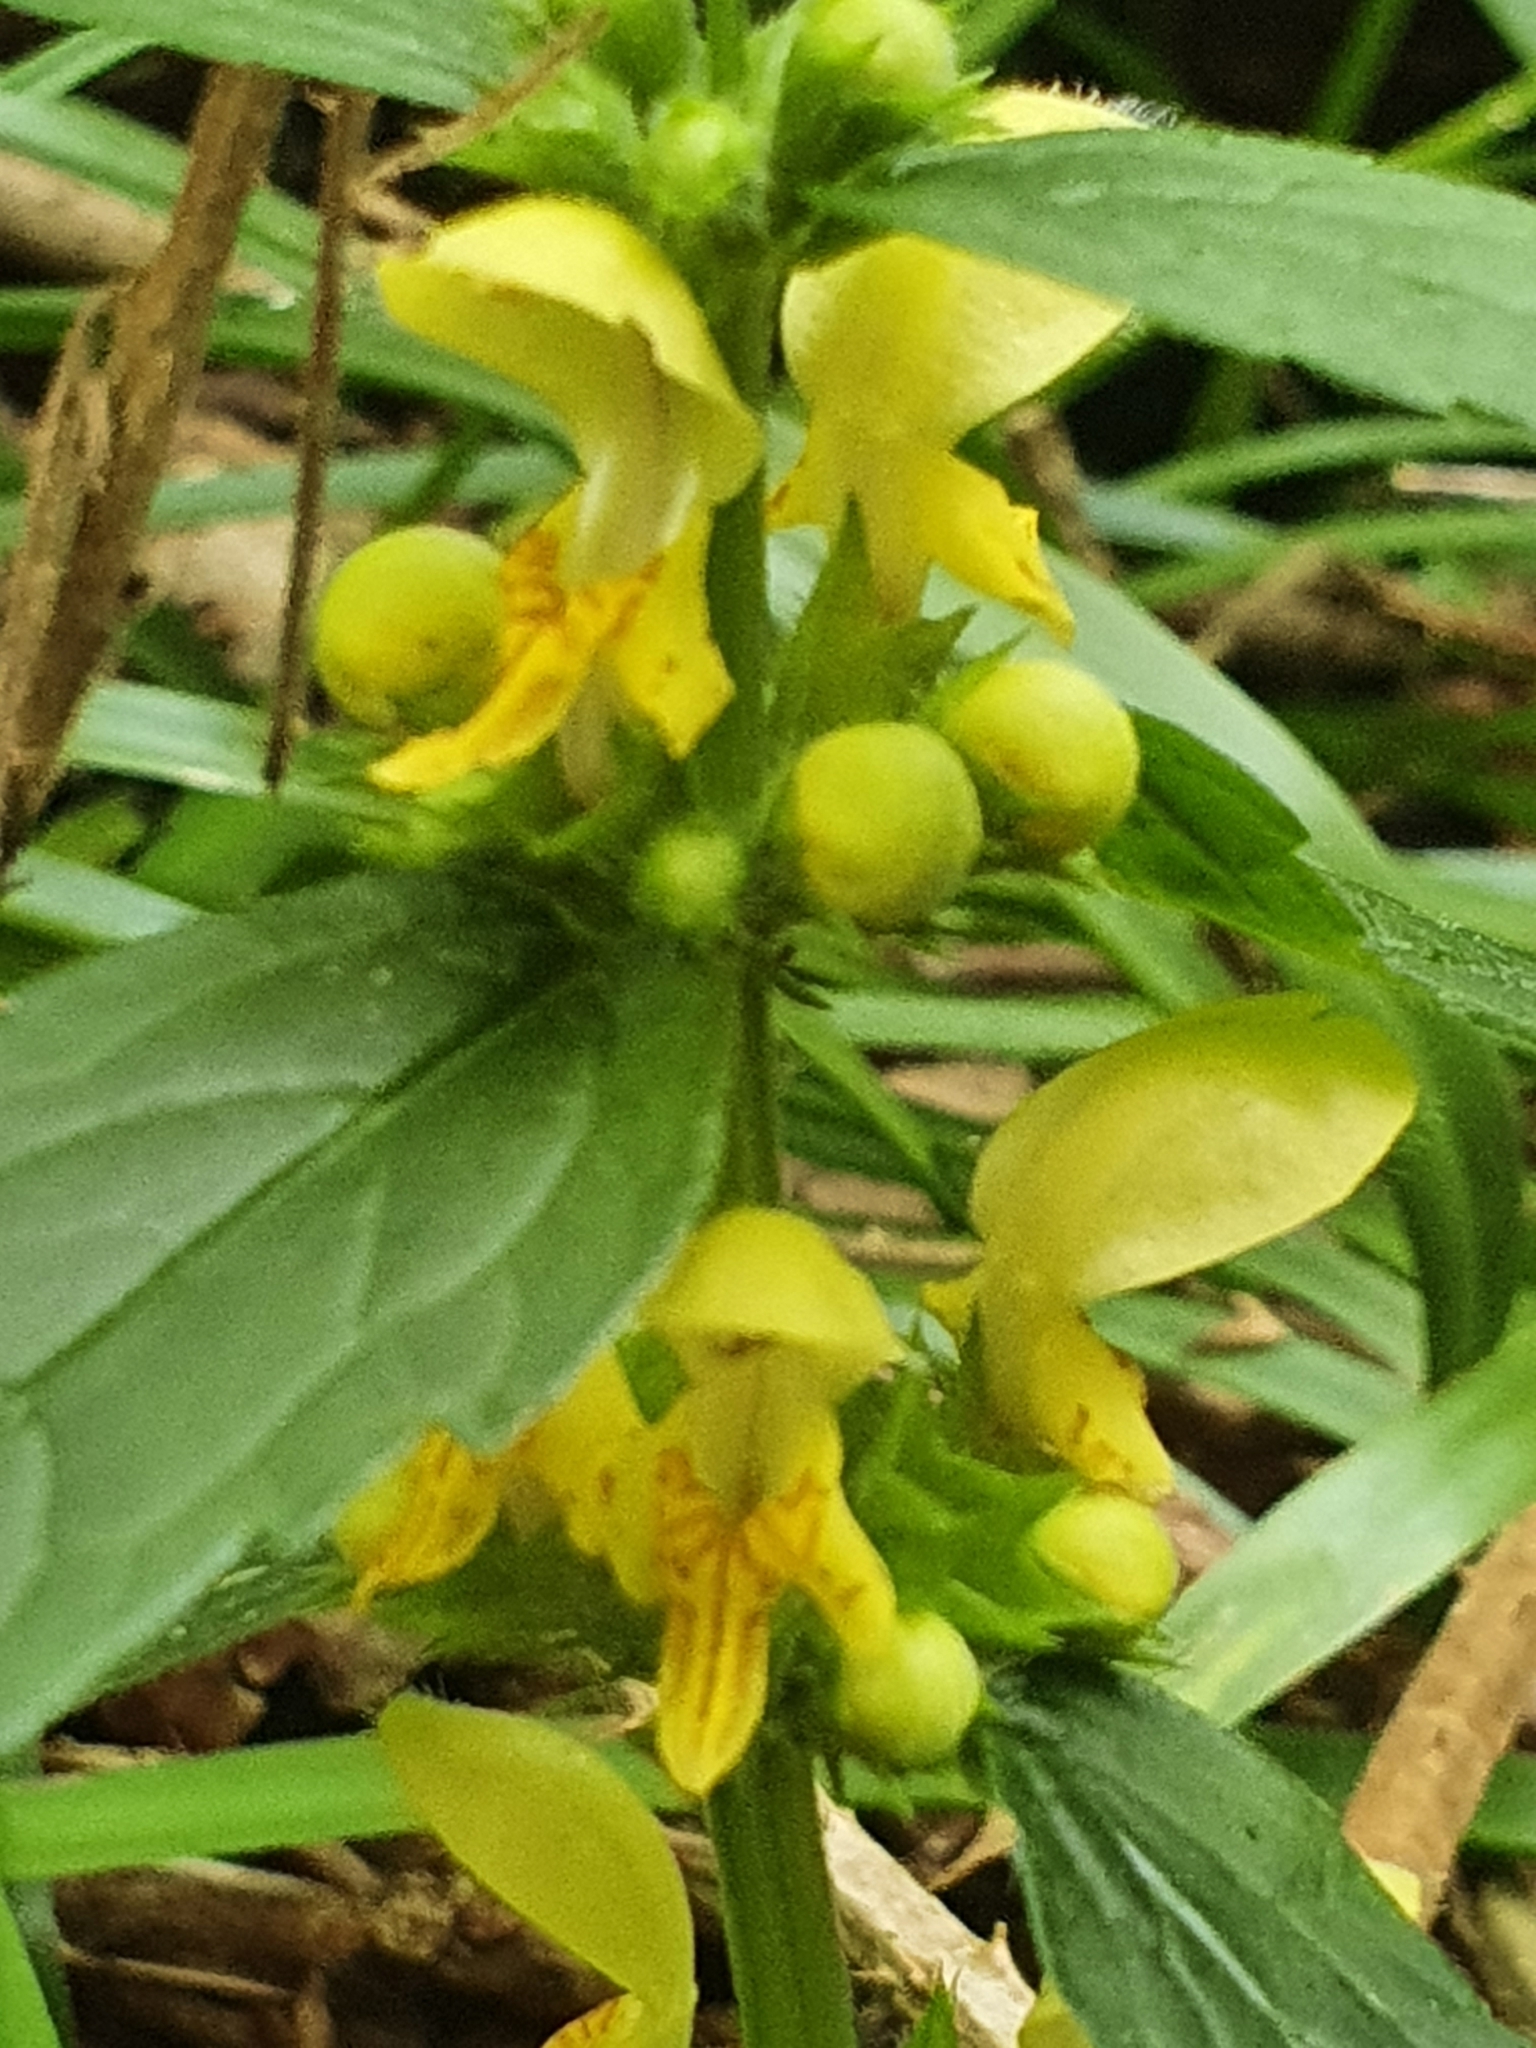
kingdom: Plantae
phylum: Tracheophyta
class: Magnoliopsida
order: Lamiales
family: Lamiaceae
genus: Lamium
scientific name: Lamium galeobdolon
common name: Yellow archangel
